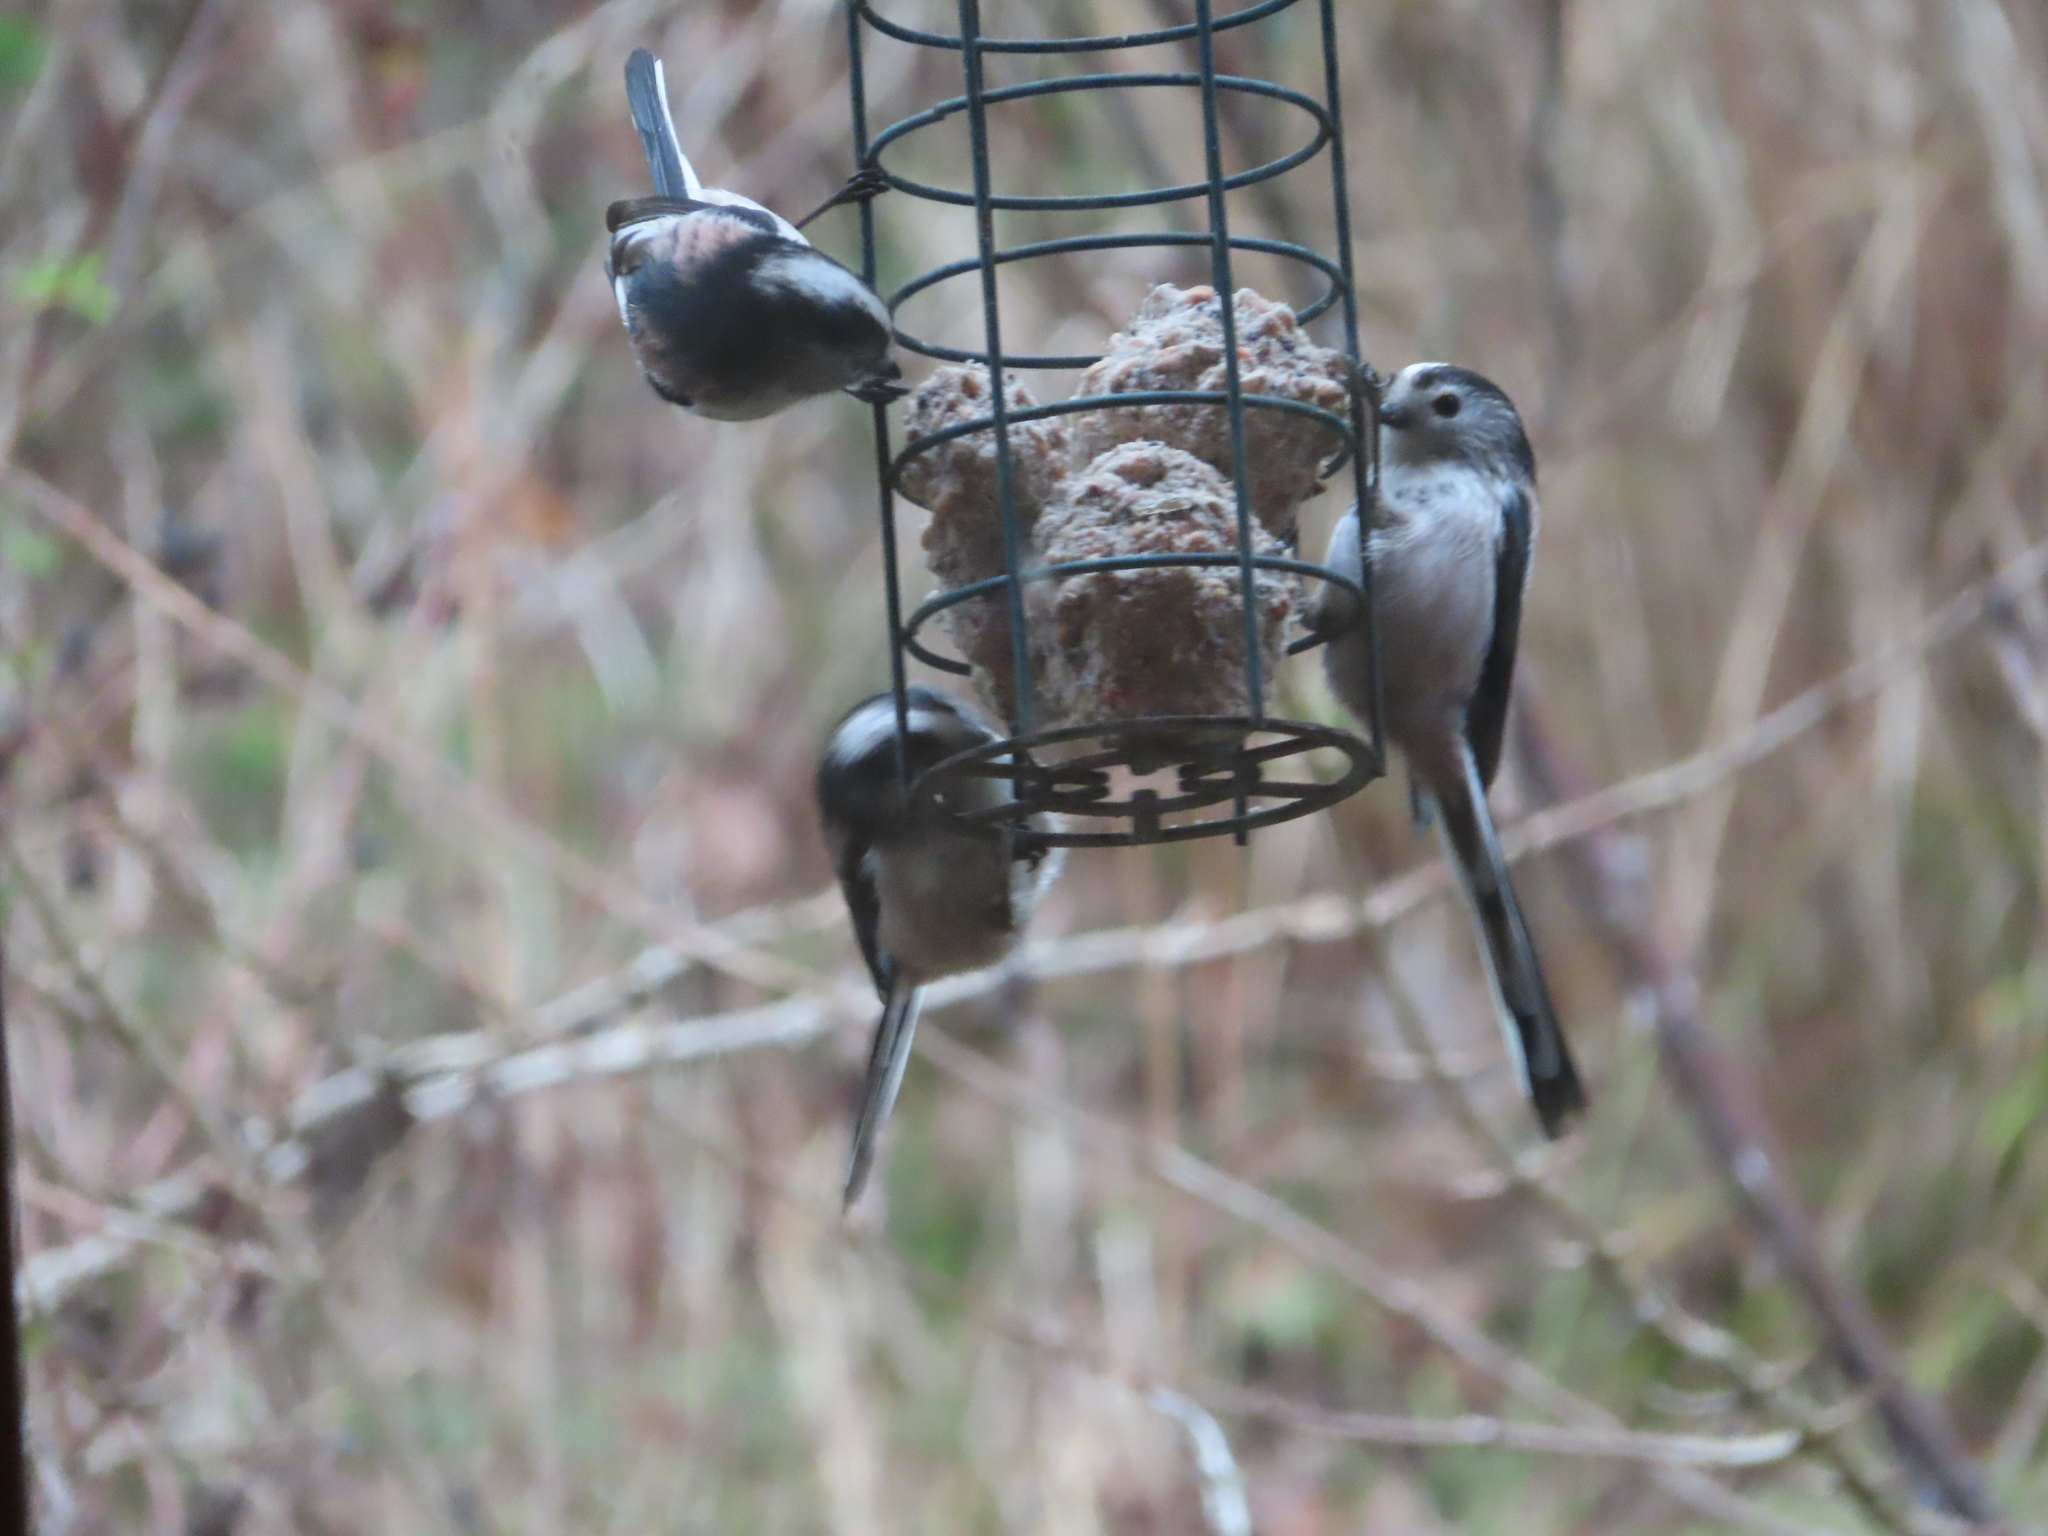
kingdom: Animalia
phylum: Chordata
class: Aves
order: Passeriformes
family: Aegithalidae
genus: Aegithalos
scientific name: Aegithalos caudatus
